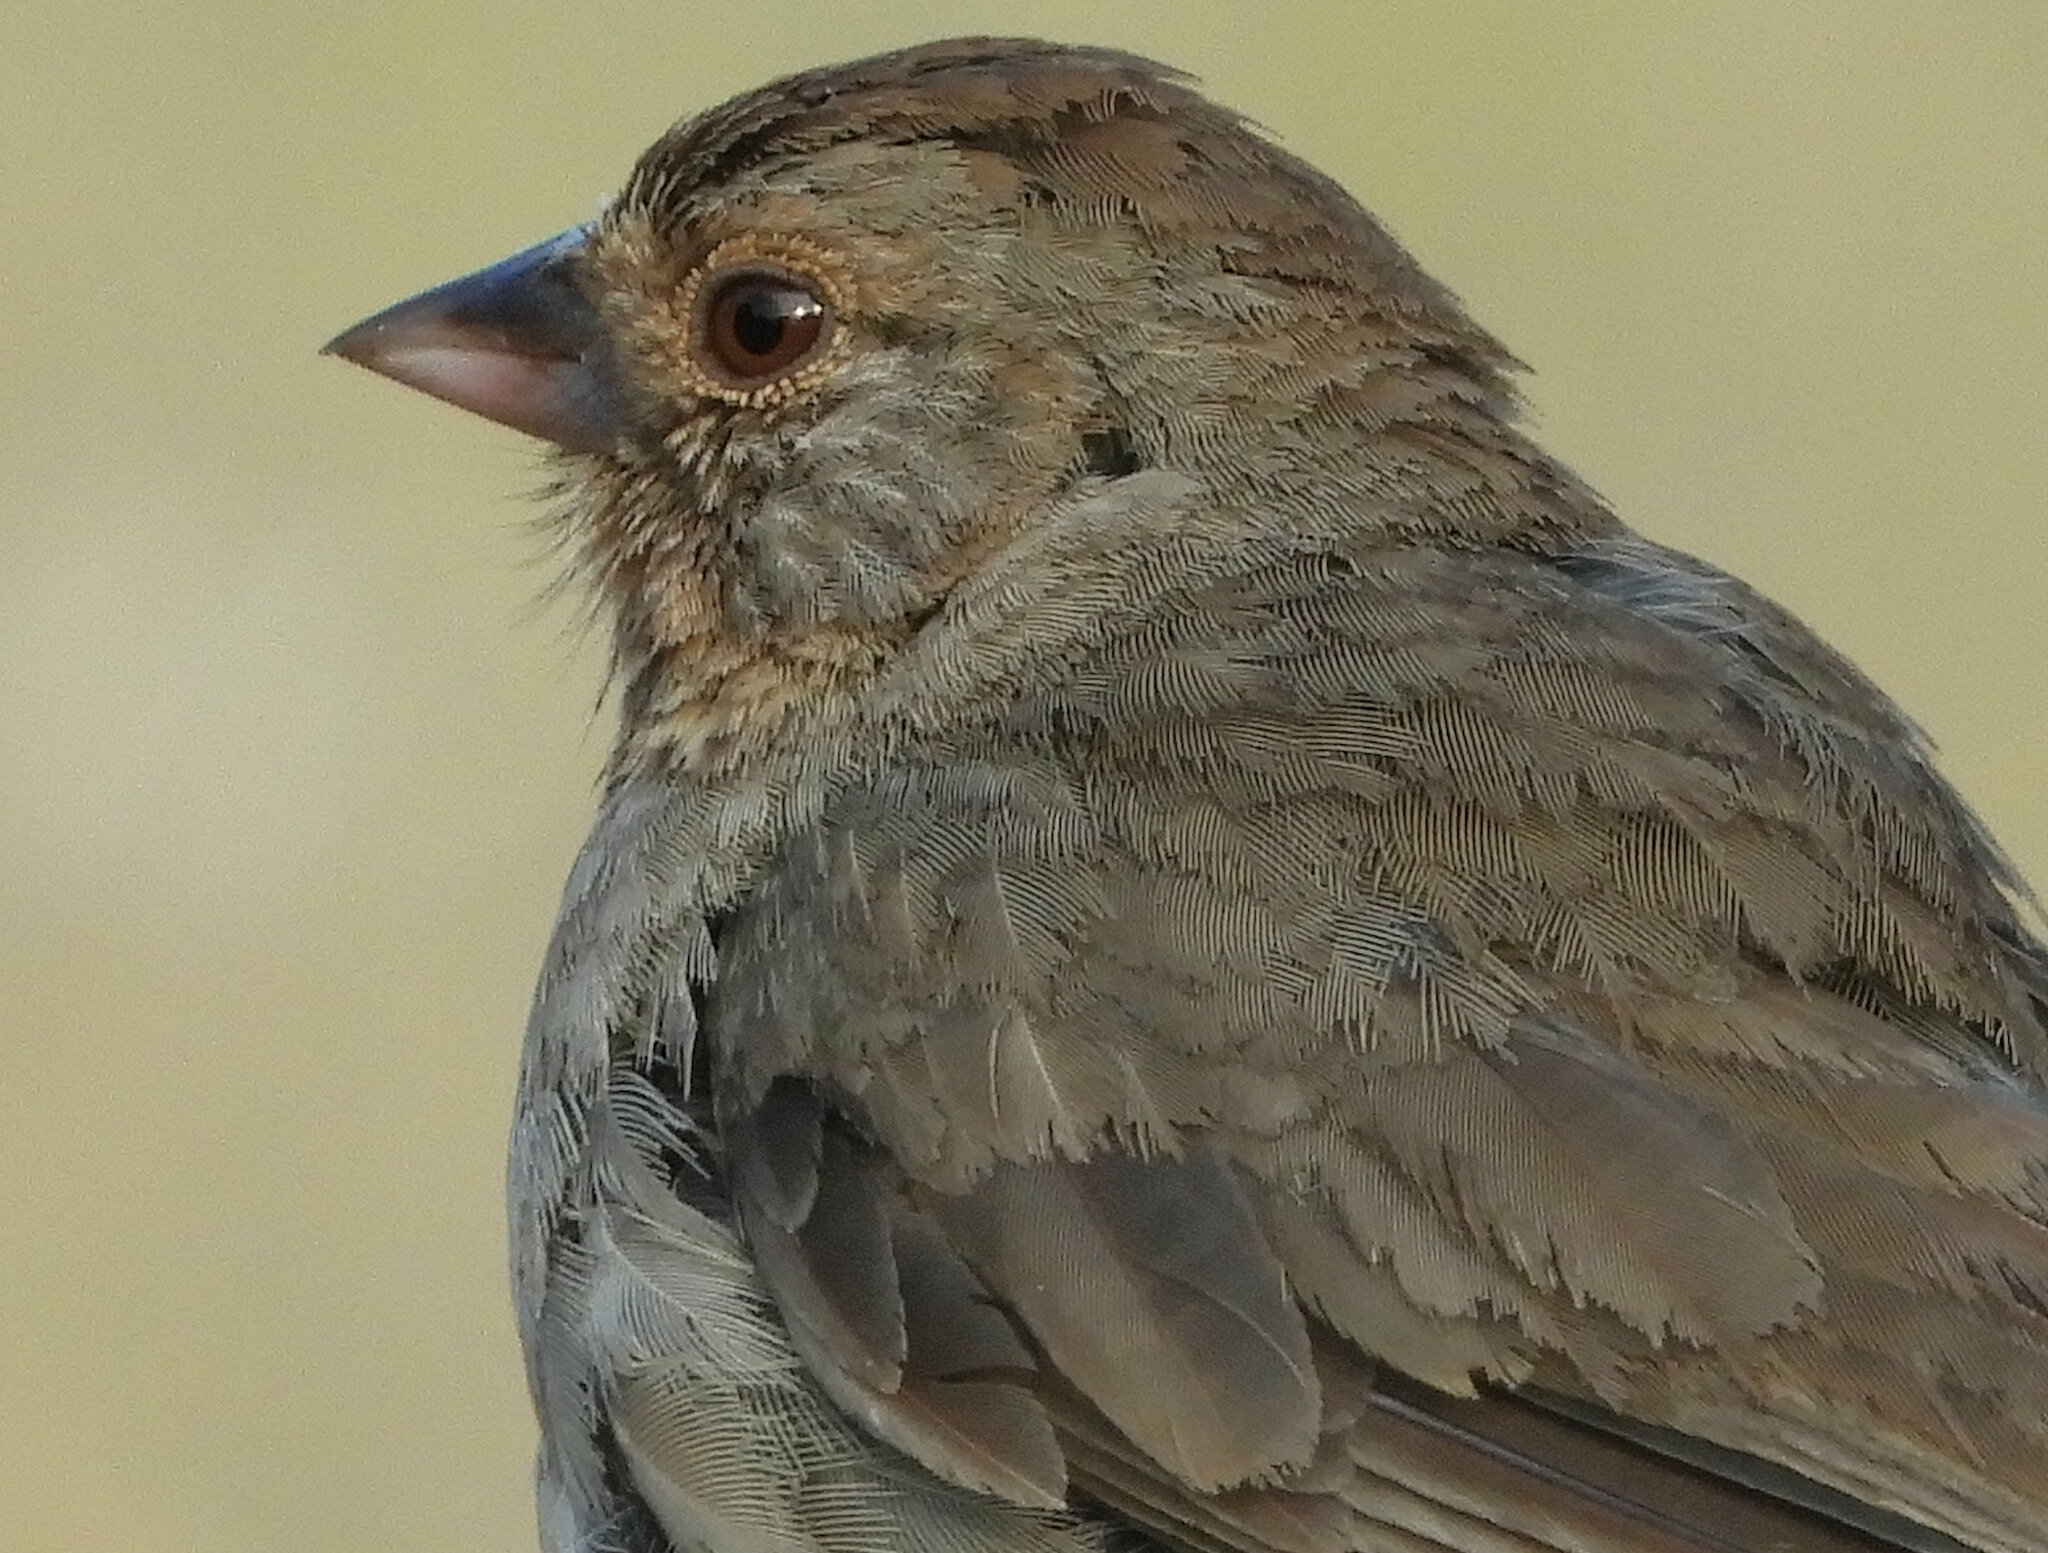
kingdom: Animalia
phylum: Chordata
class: Aves
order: Passeriformes
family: Passerellidae
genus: Melozone
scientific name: Melozone crissalis
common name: California towhee
